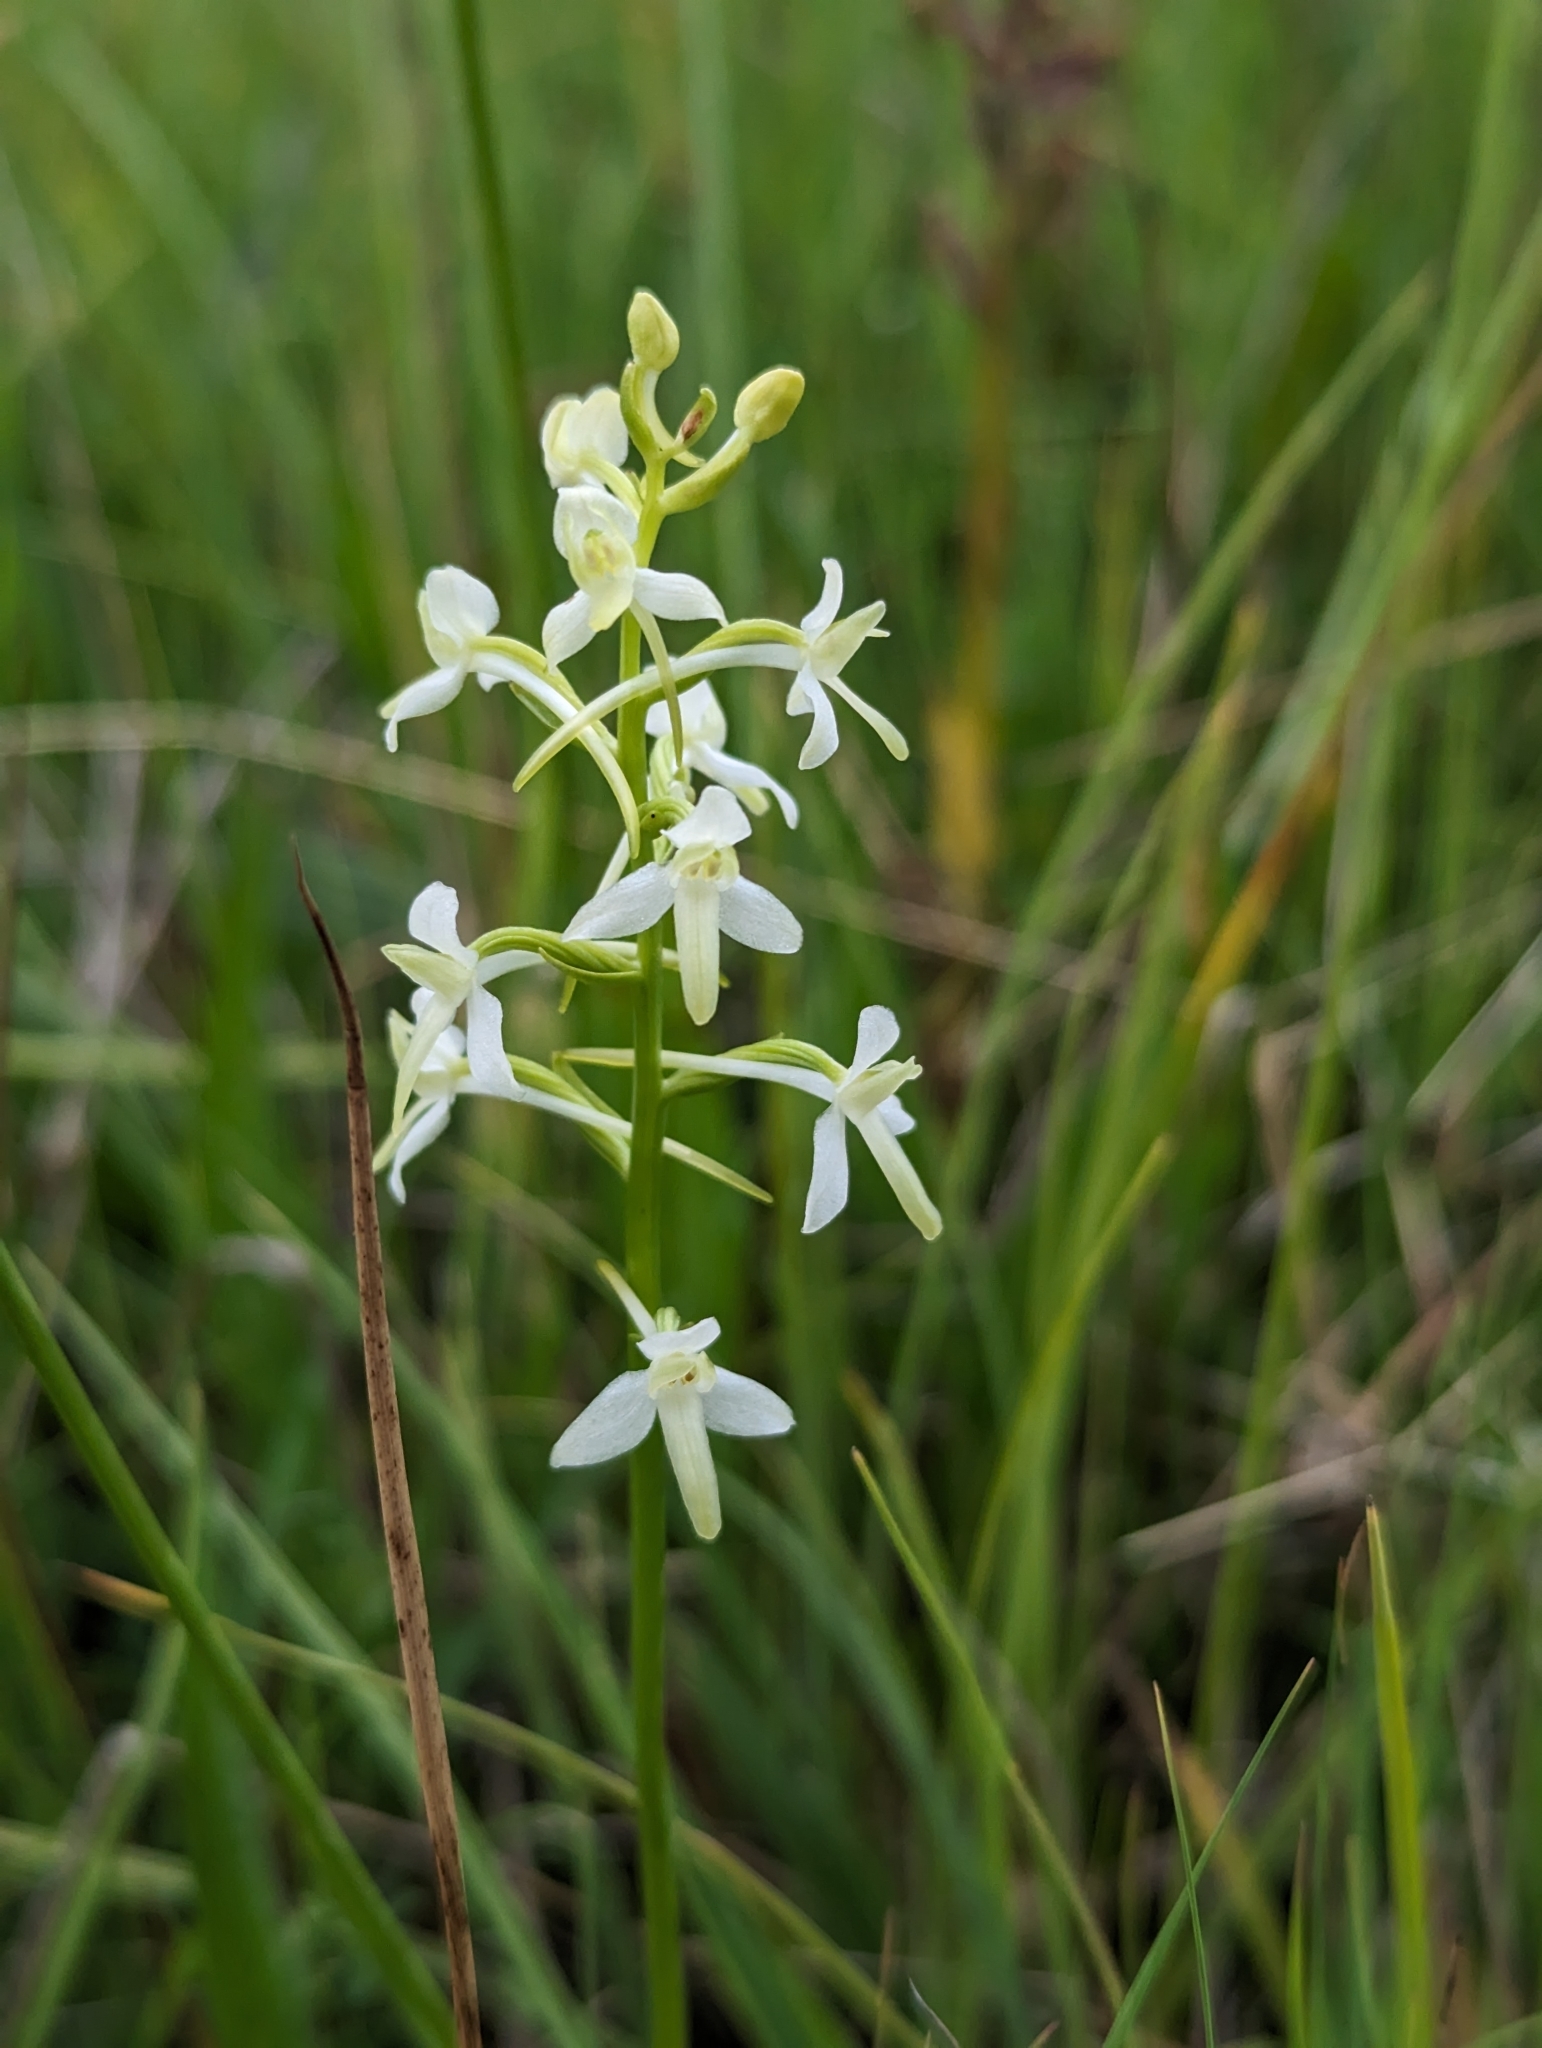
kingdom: Plantae
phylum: Tracheophyta
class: Liliopsida
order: Asparagales
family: Orchidaceae
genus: Platanthera
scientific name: Platanthera bifolia
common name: Lesser butterfly-orchid
